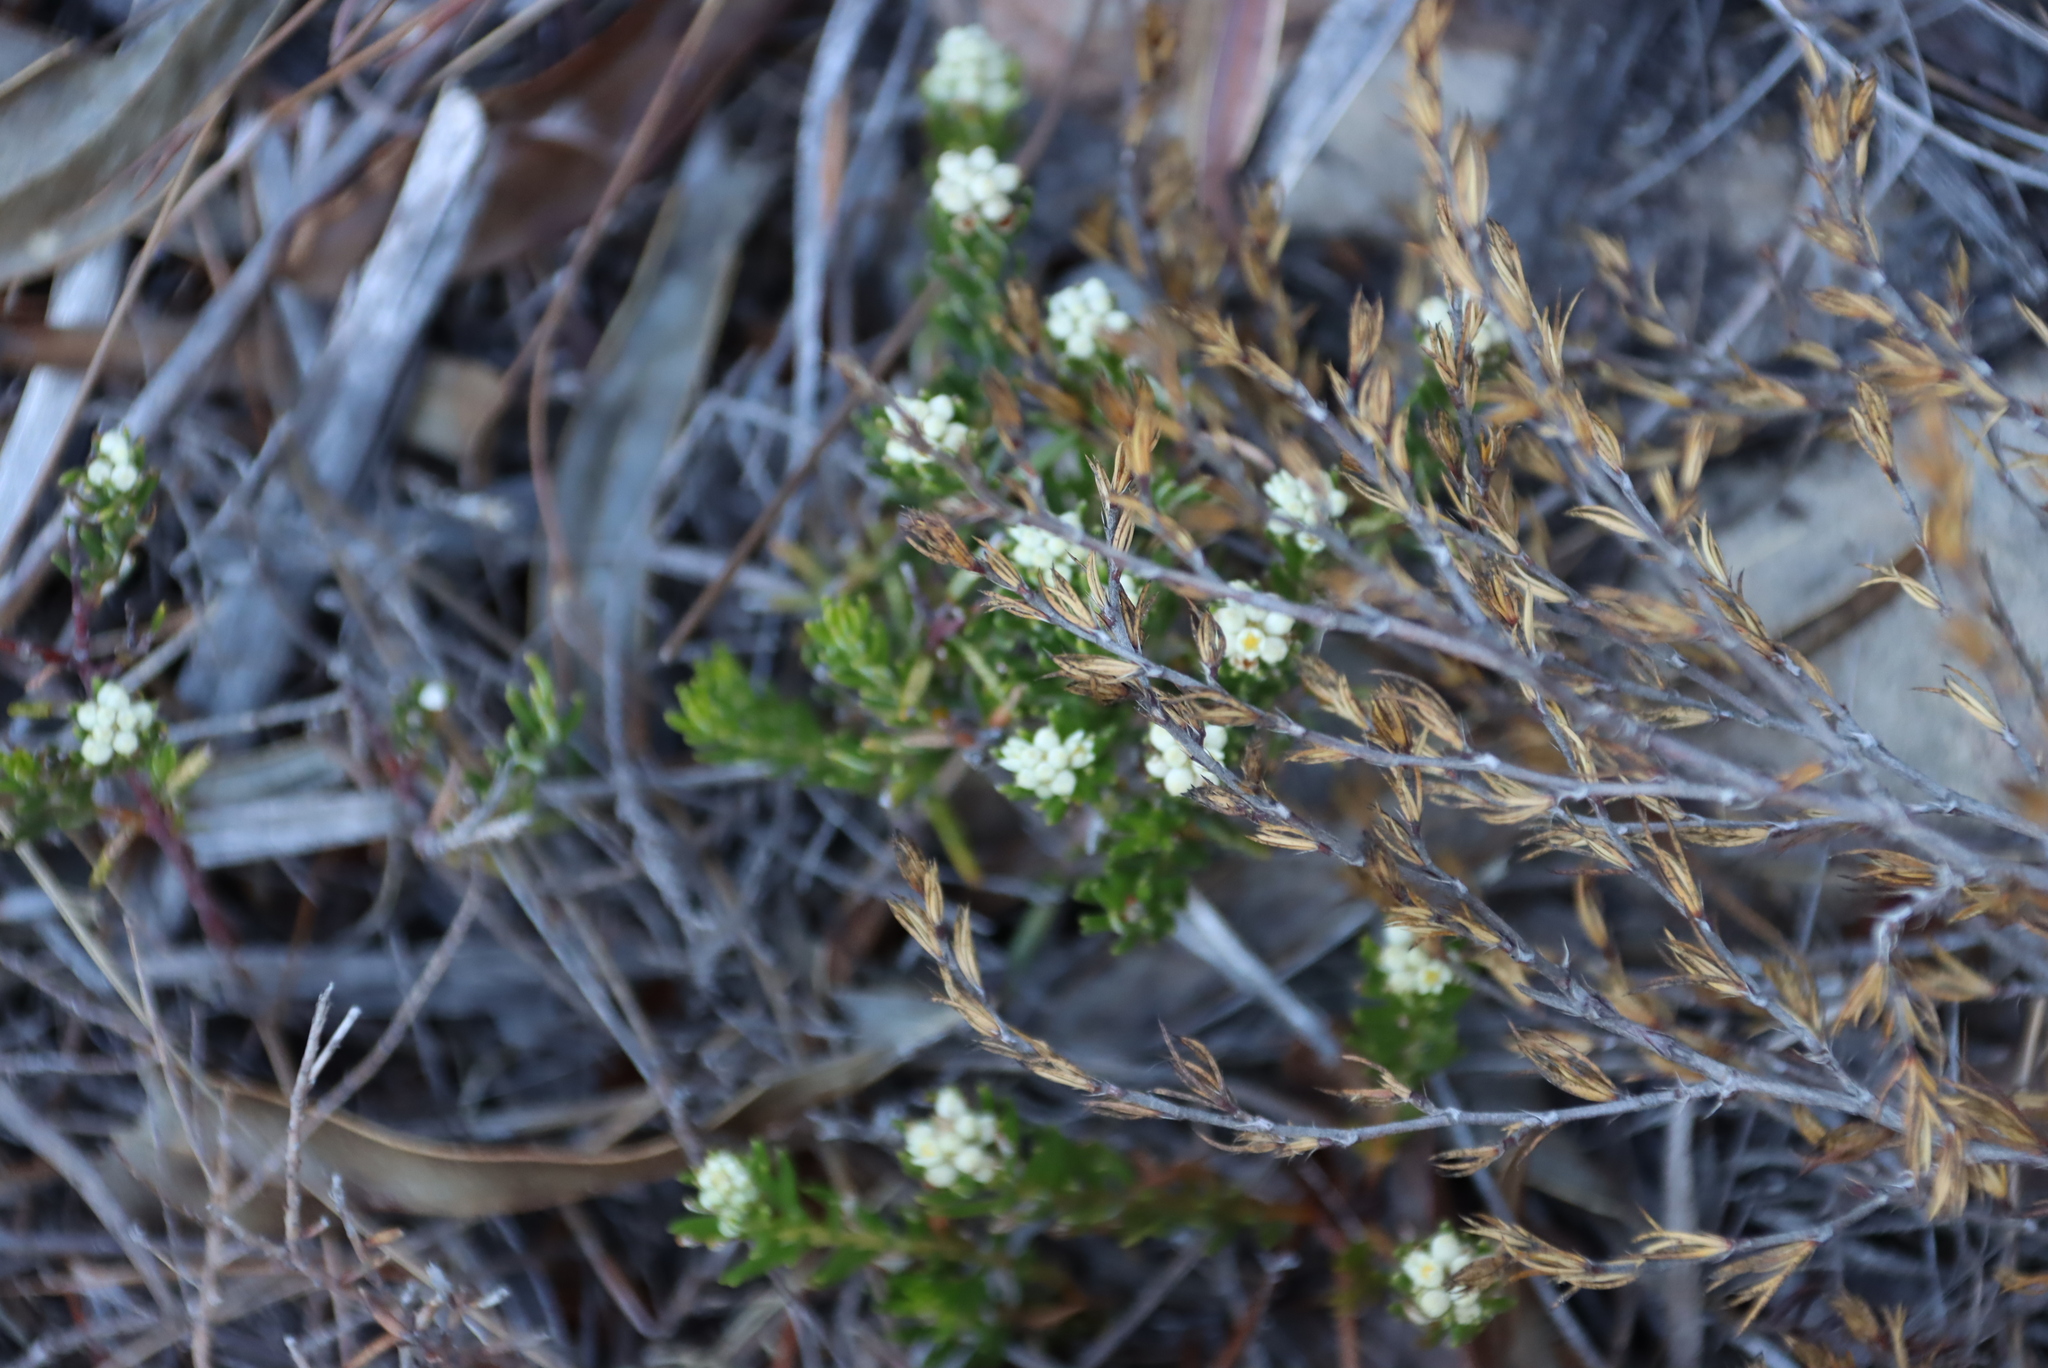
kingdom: Plantae
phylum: Tracheophyta
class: Magnoliopsida
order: Sapindales
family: Rutaceae
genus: Diosma
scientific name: Diosma oppositifolia
